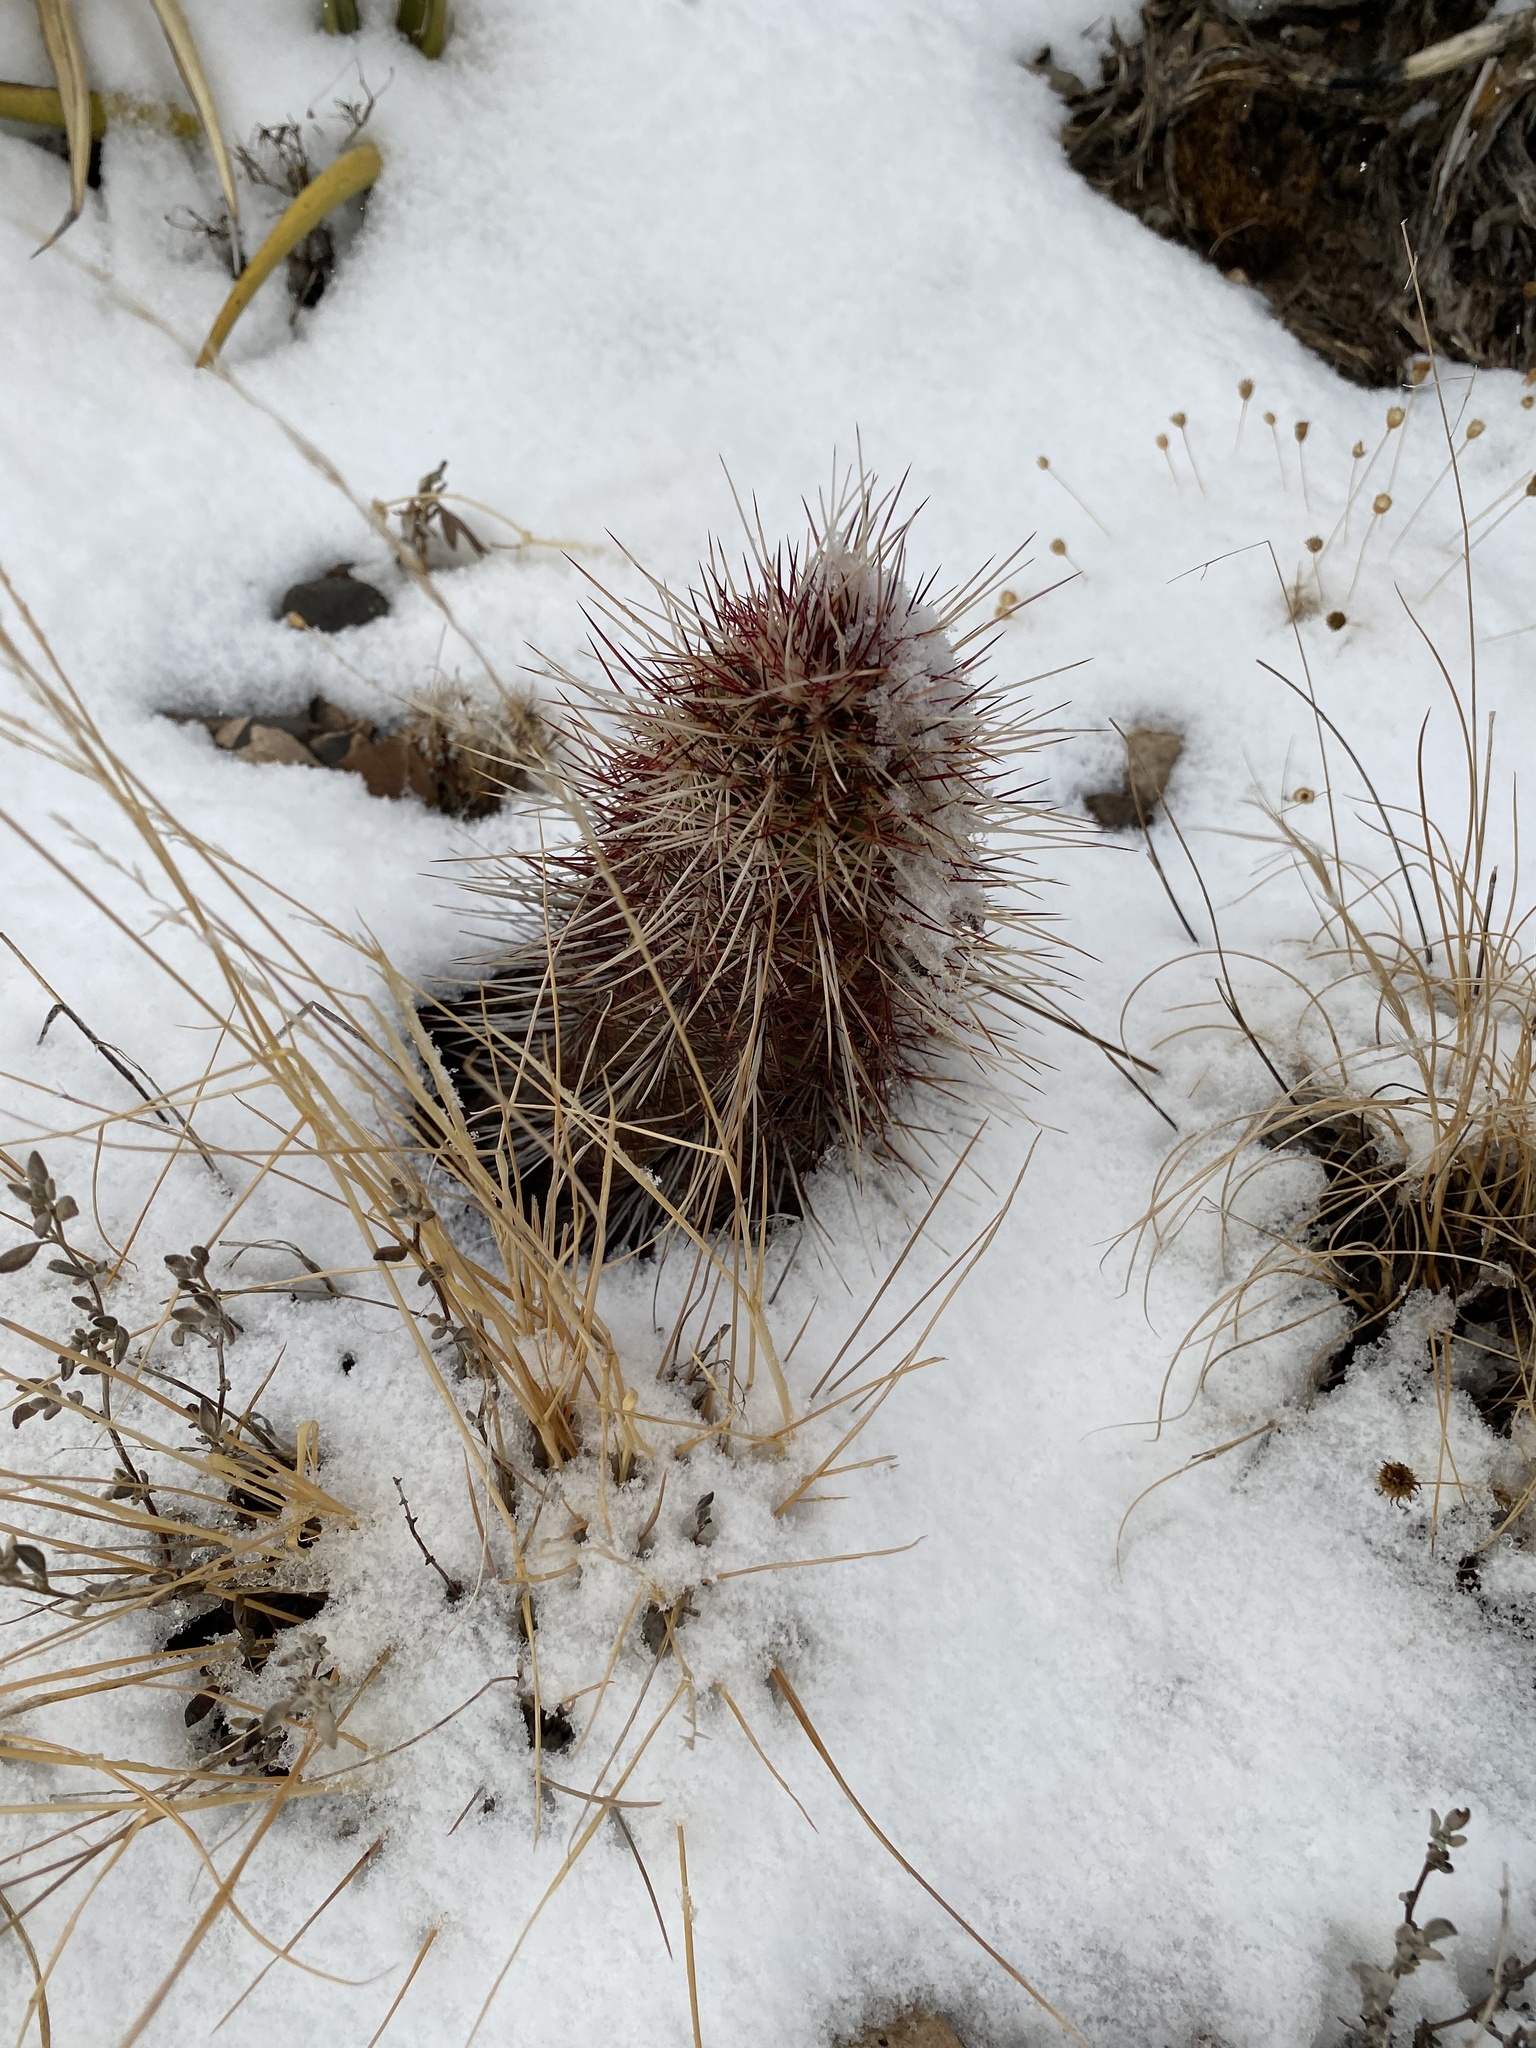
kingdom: Plantae
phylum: Tracheophyta
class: Magnoliopsida
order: Caryophyllales
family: Cactaceae
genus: Echinocereus
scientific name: Echinocereus viridiflorus
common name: Nylon hedgehog cactus
